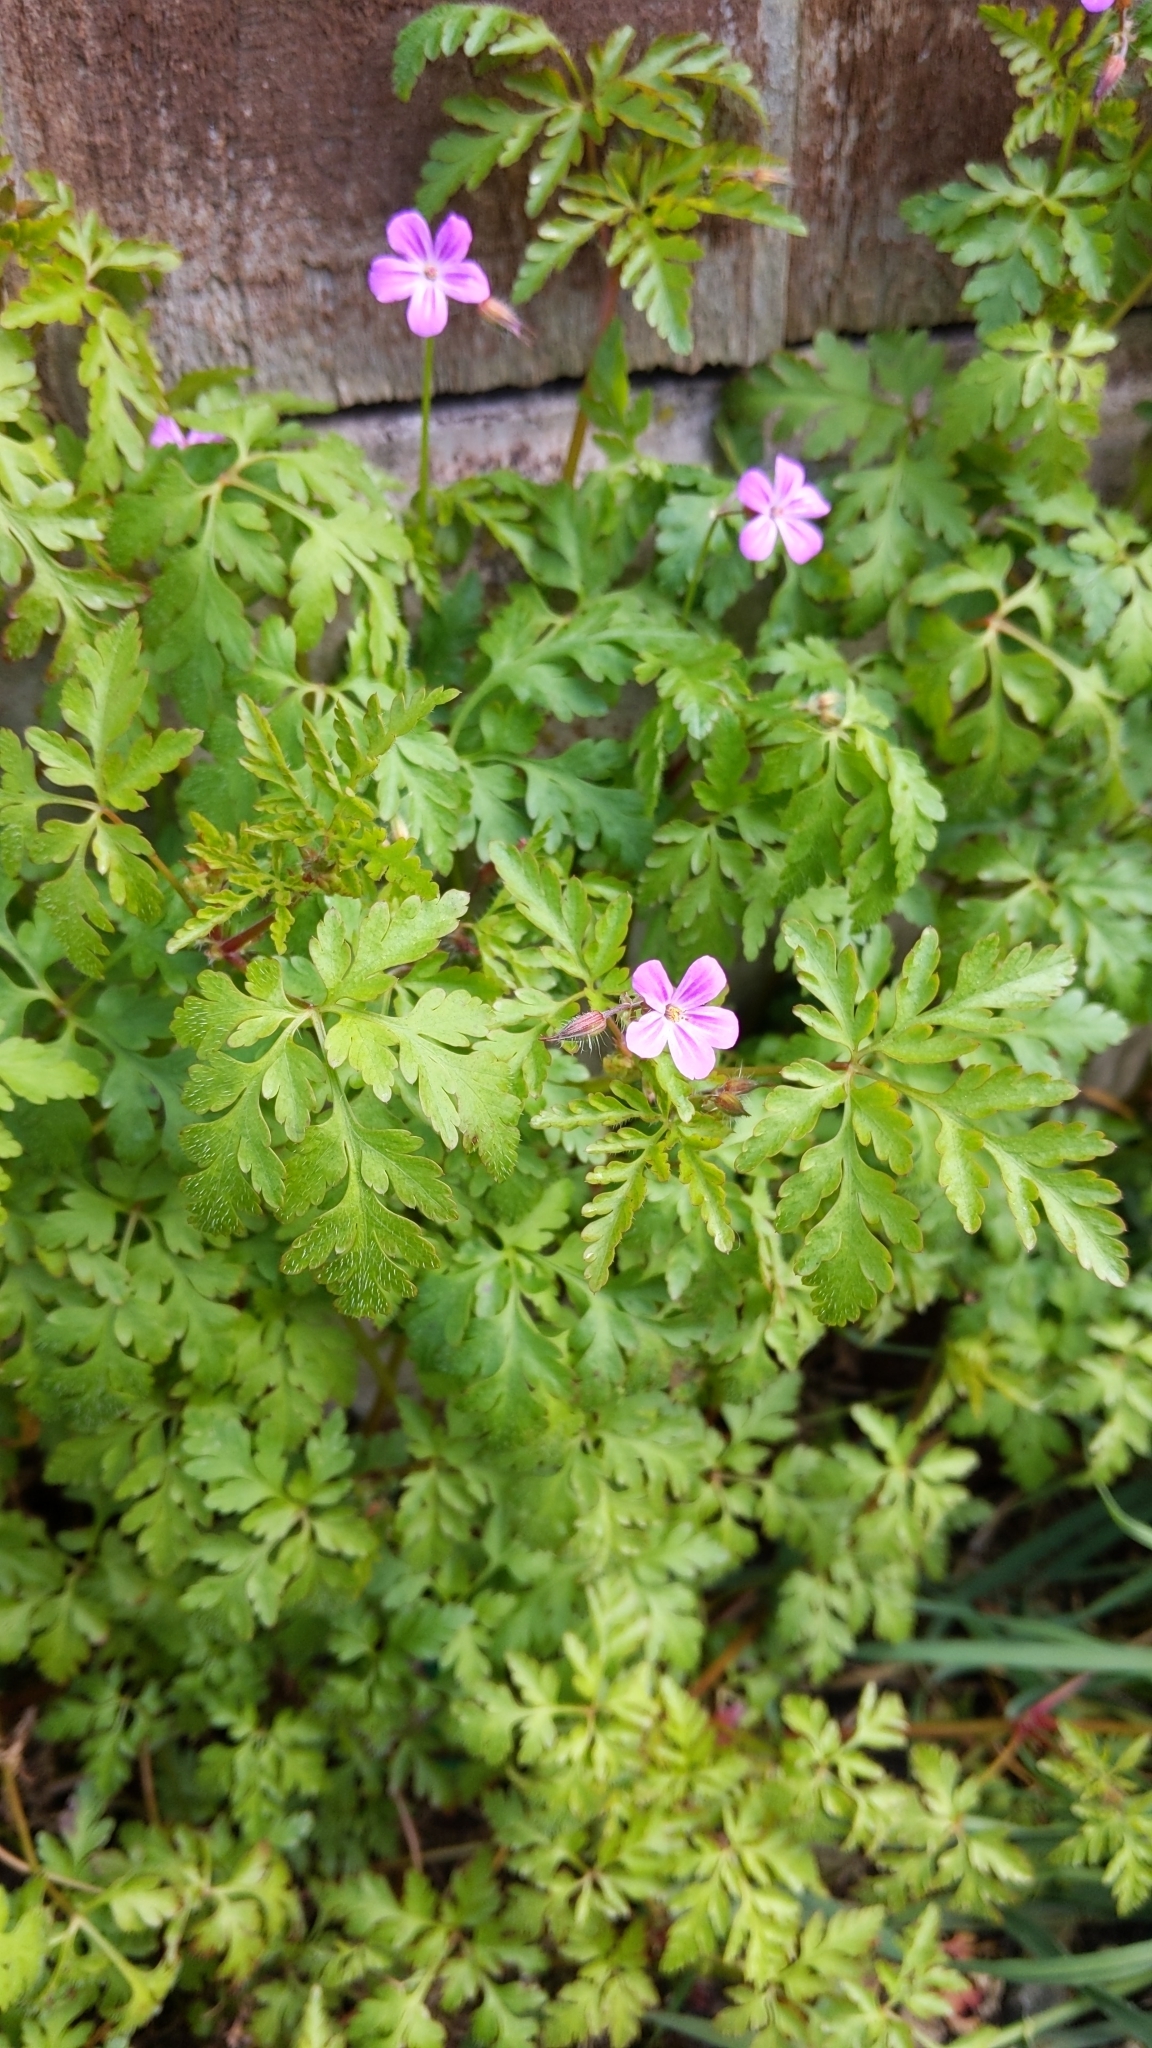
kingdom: Plantae
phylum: Tracheophyta
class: Magnoliopsida
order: Geraniales
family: Geraniaceae
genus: Geranium
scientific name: Geranium robertianum
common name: Herb-robert
